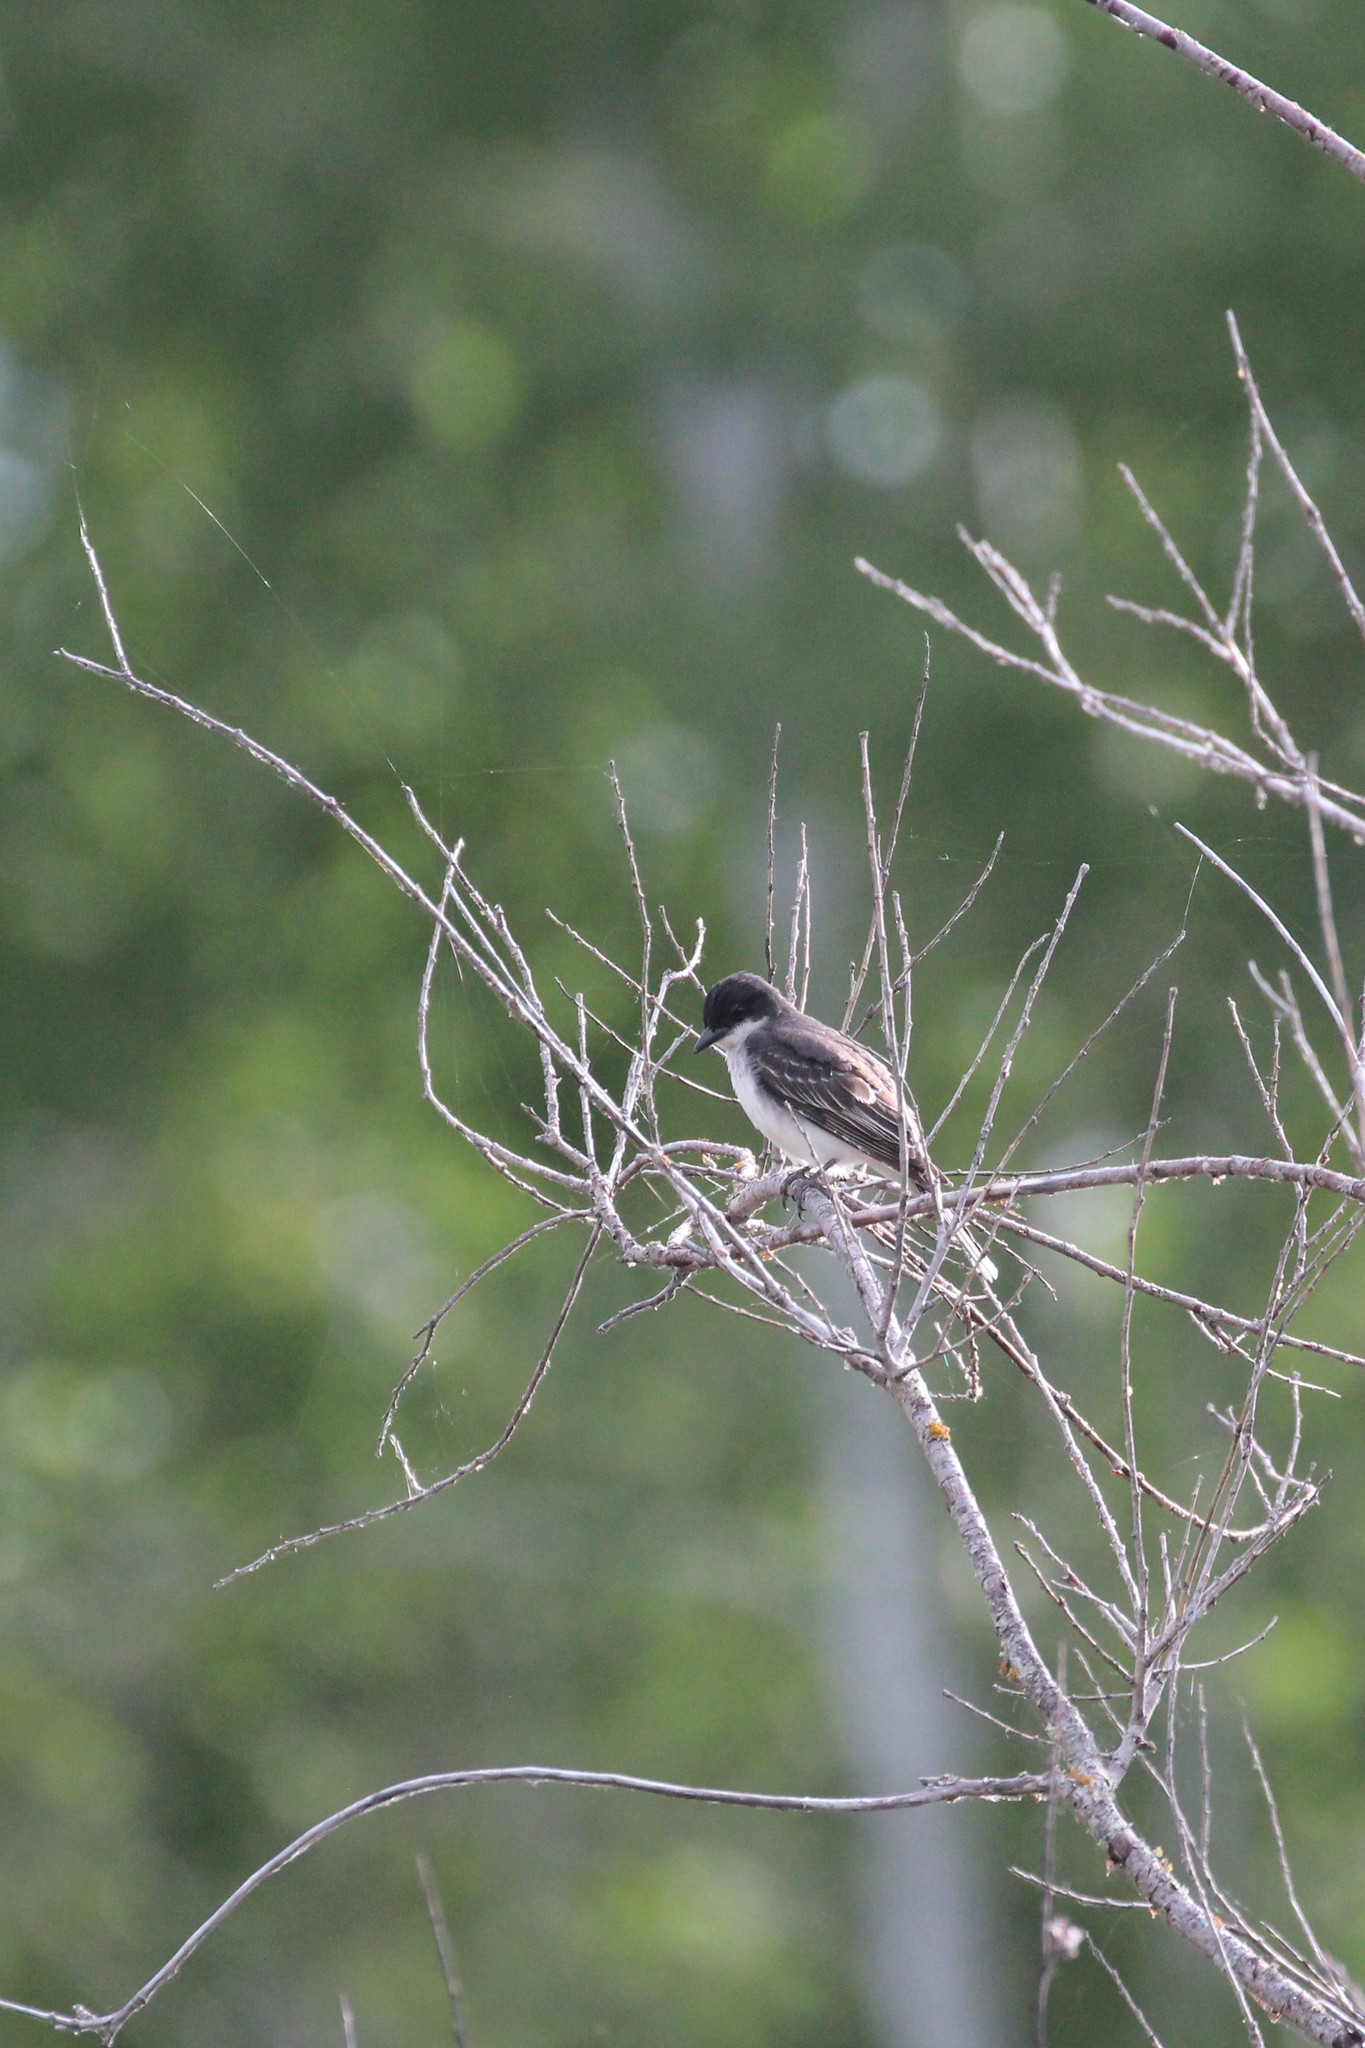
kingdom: Animalia
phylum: Chordata
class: Aves
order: Passeriformes
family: Tyrannidae
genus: Tyrannus
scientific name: Tyrannus tyrannus
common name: Eastern kingbird
